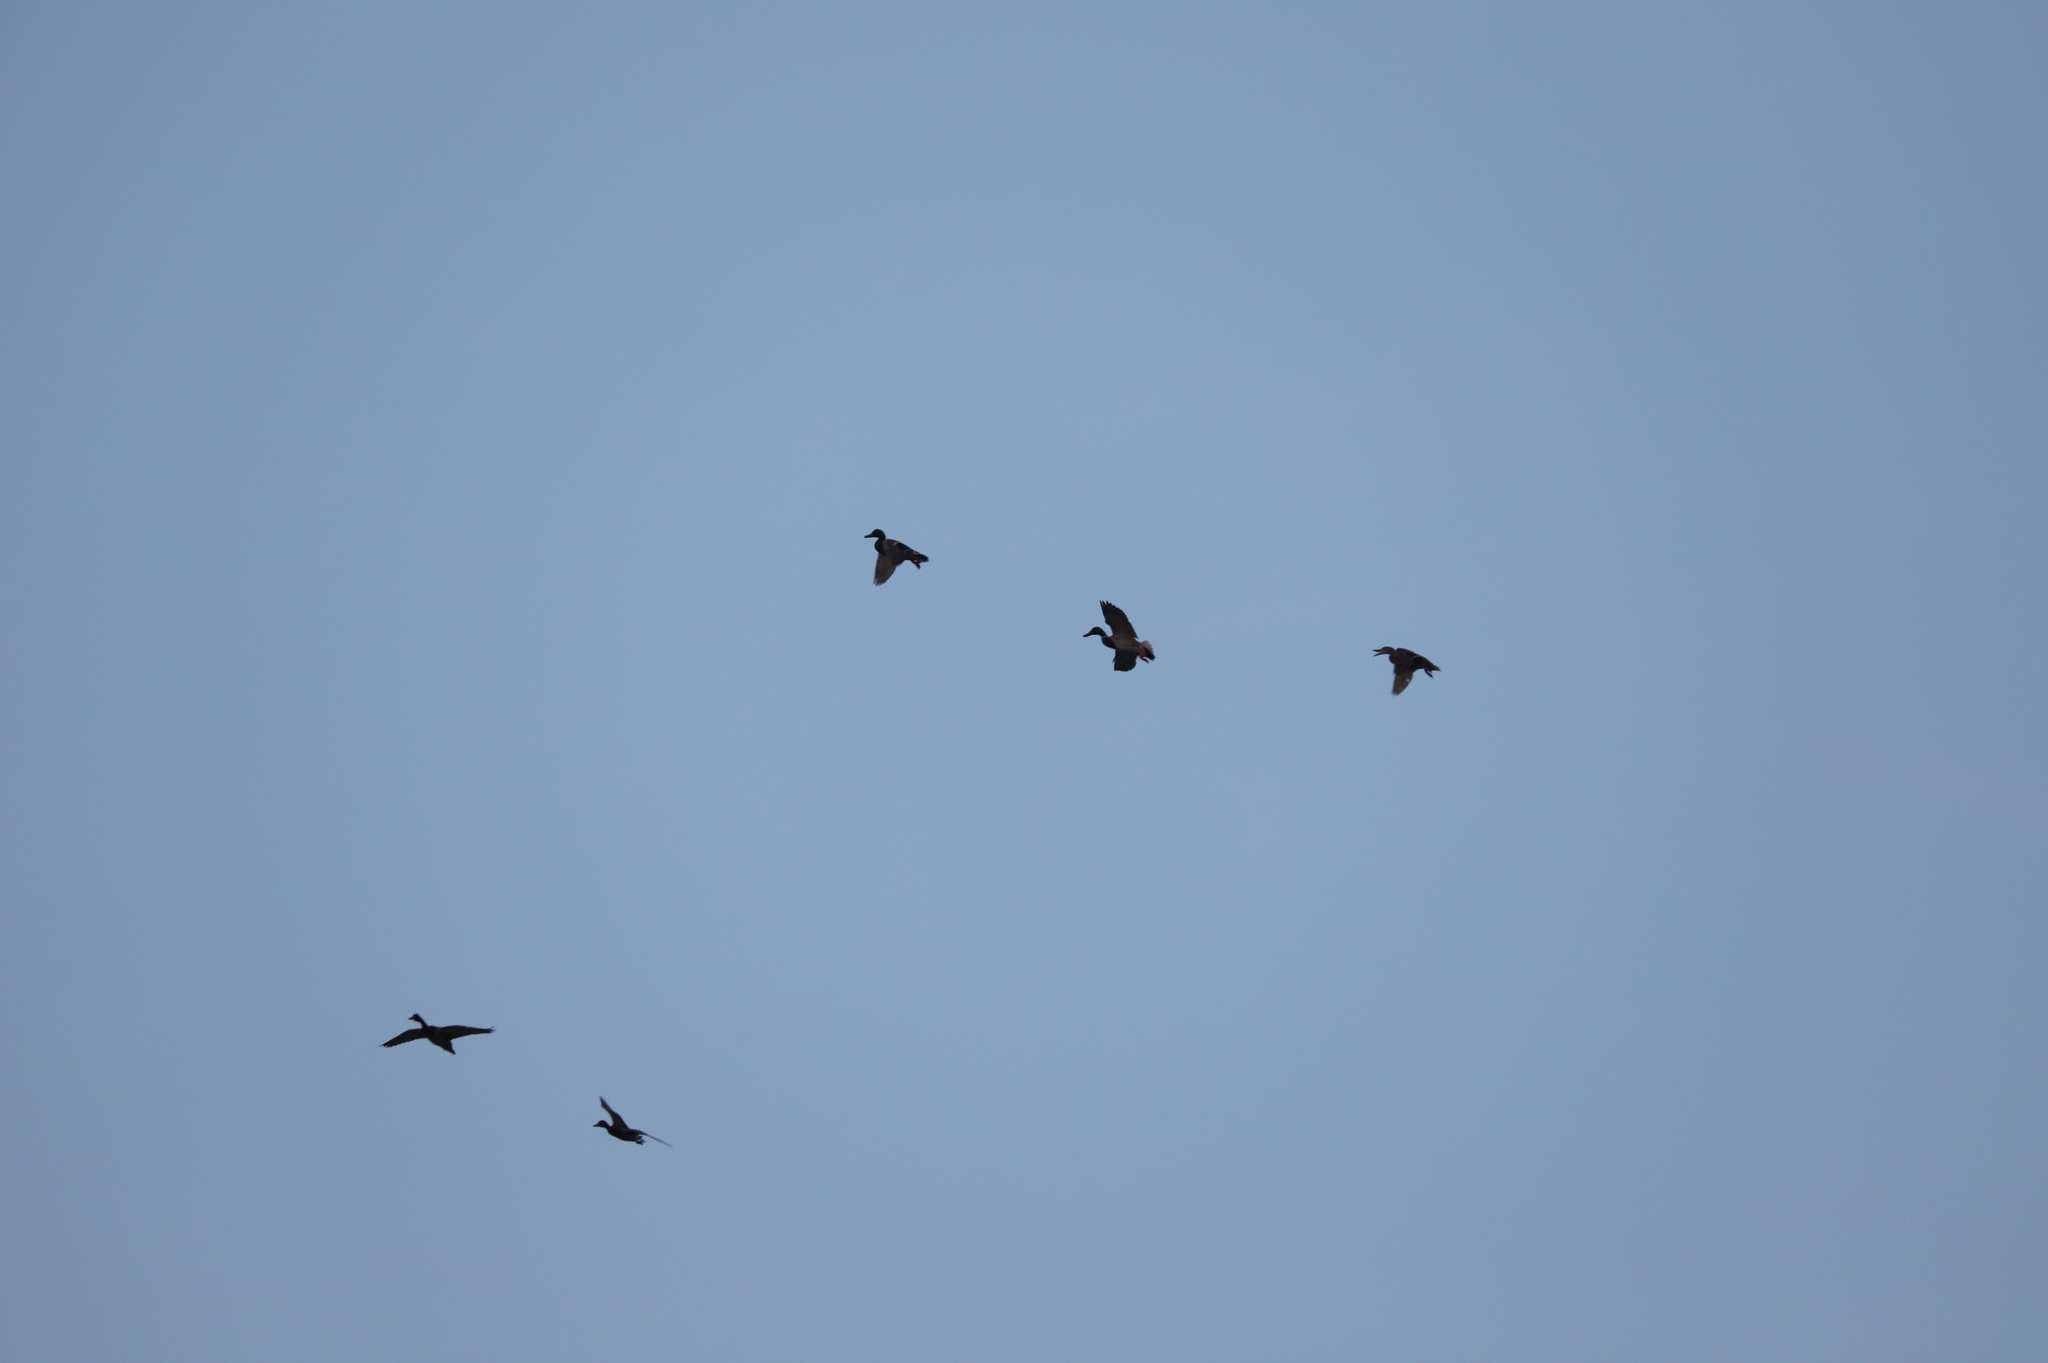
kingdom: Animalia
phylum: Chordata
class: Aves
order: Anseriformes
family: Anatidae
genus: Anas
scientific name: Anas platyrhynchos
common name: Mallard
